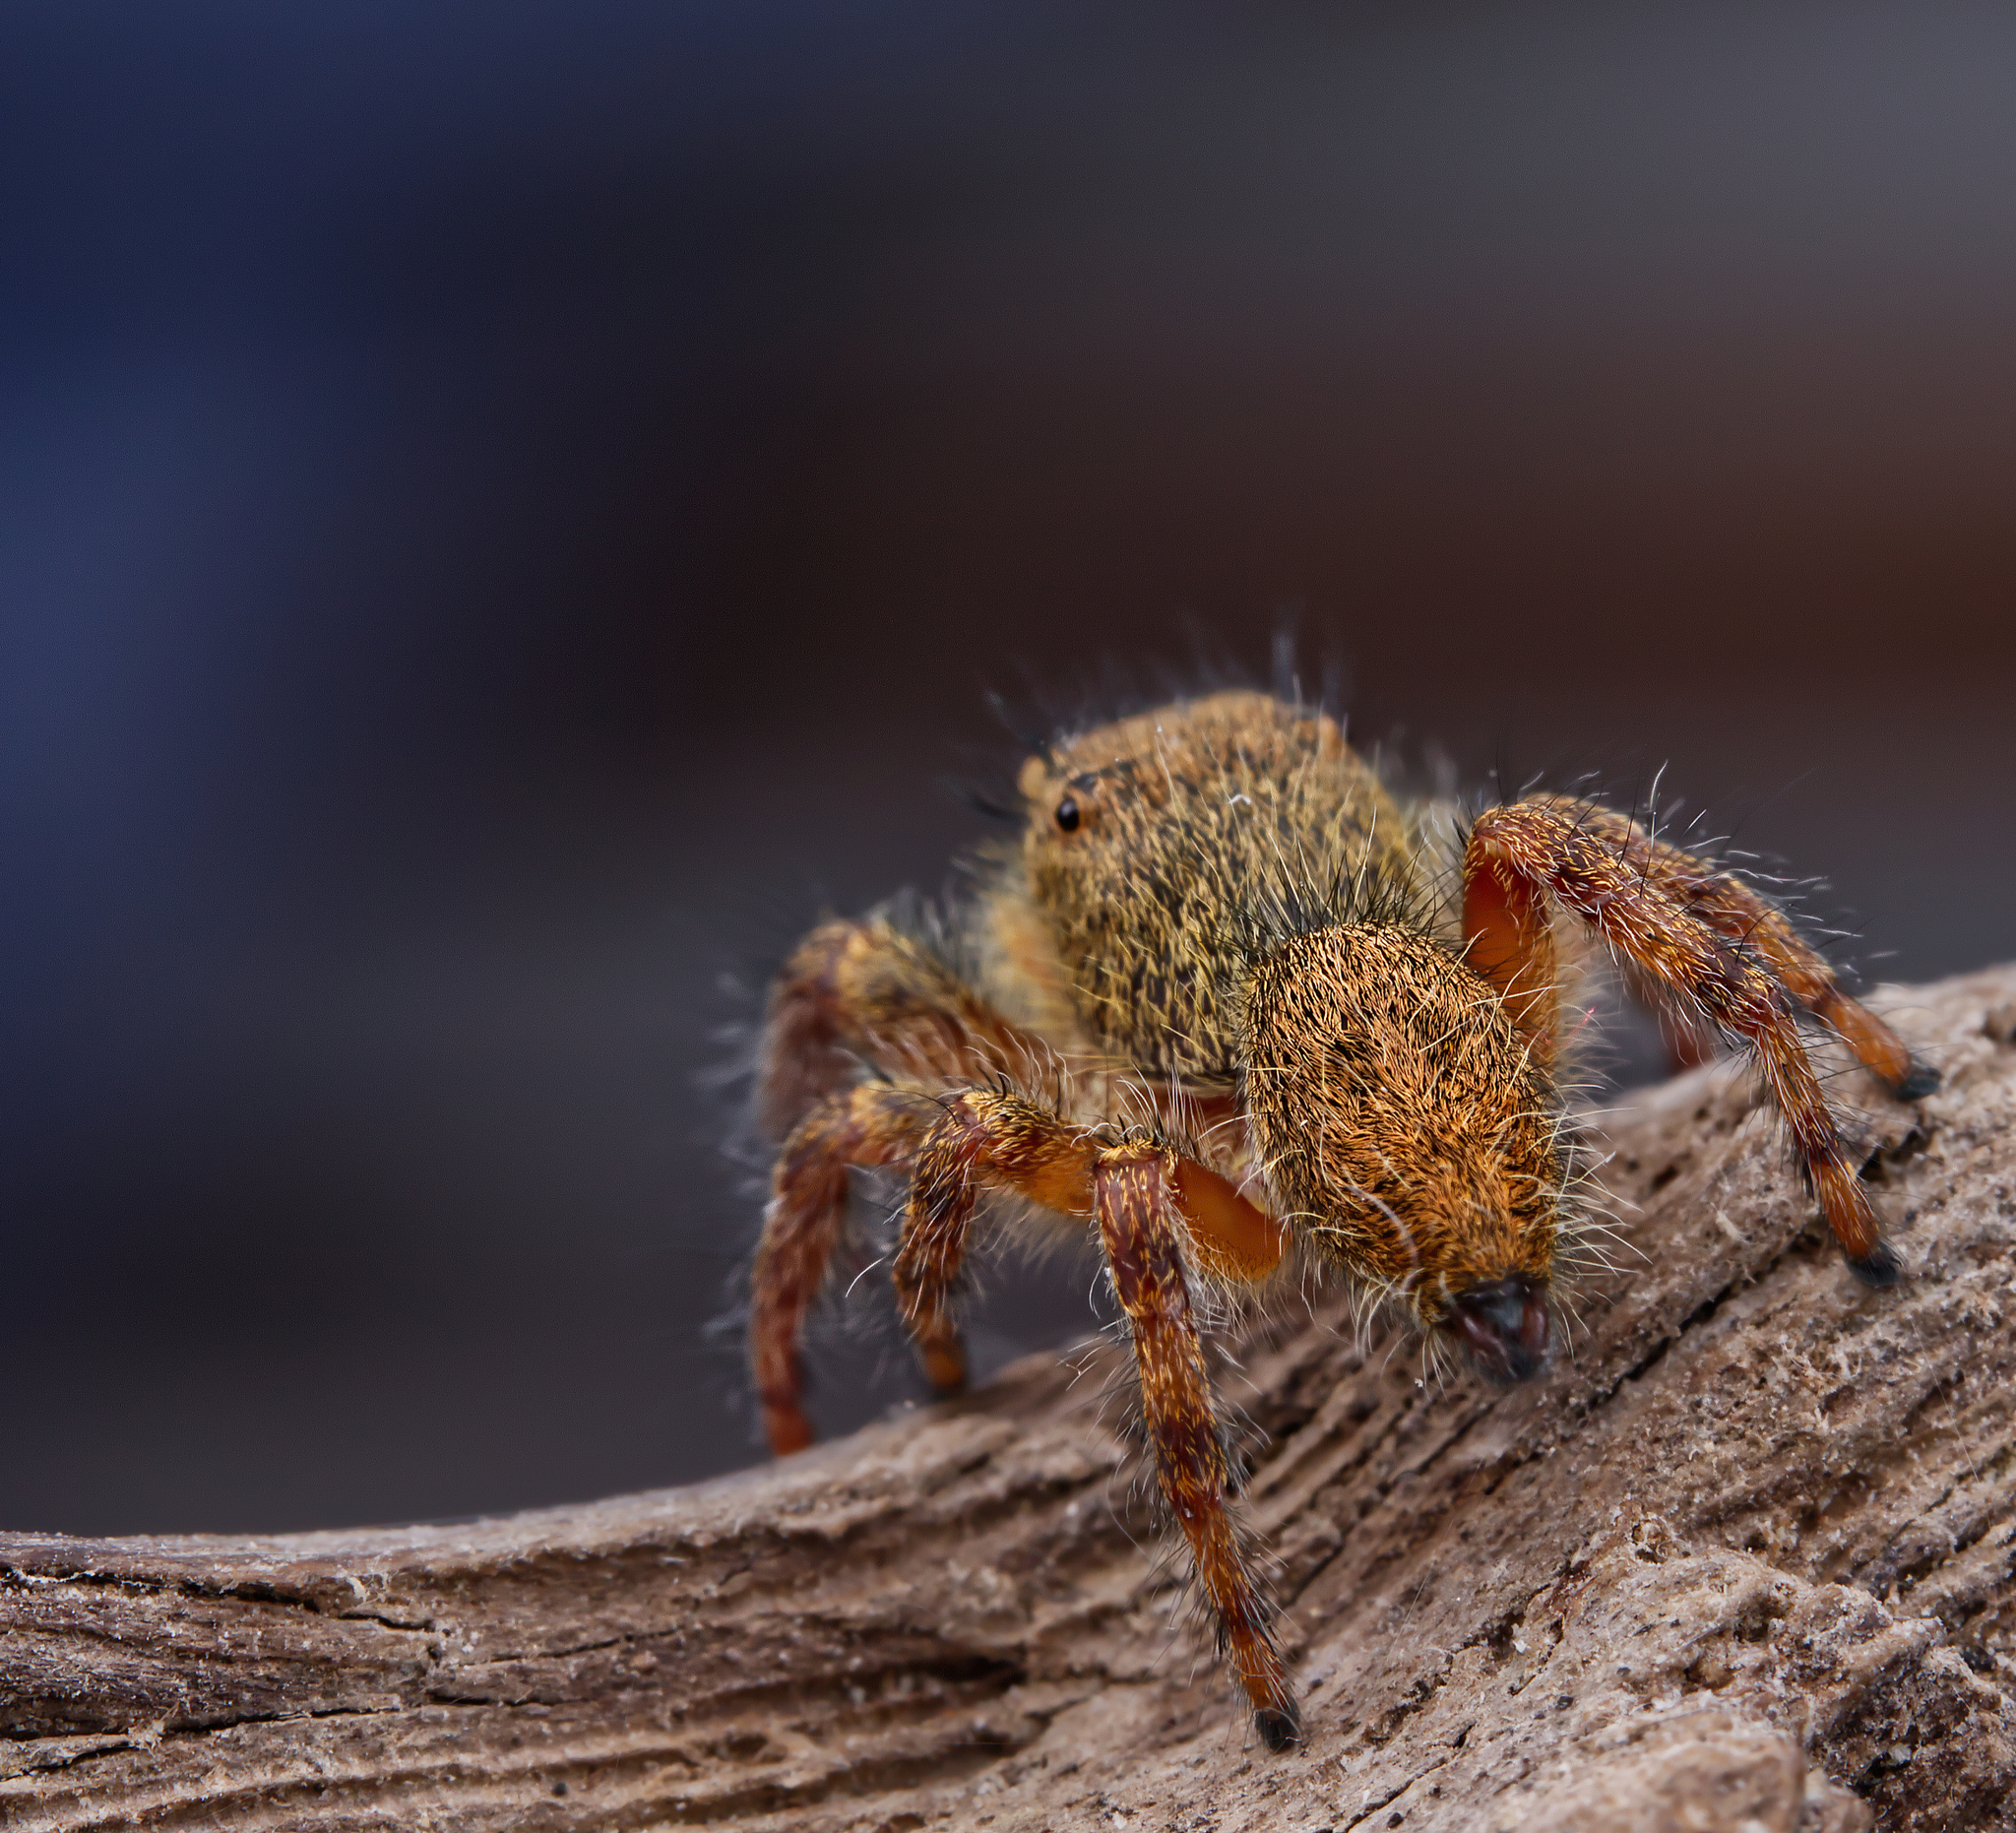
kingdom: Animalia
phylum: Arthropoda
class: Arachnida
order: Araneae
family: Salticidae
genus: Phidippus
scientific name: Phidippus princeps
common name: Grayish jumping spider
